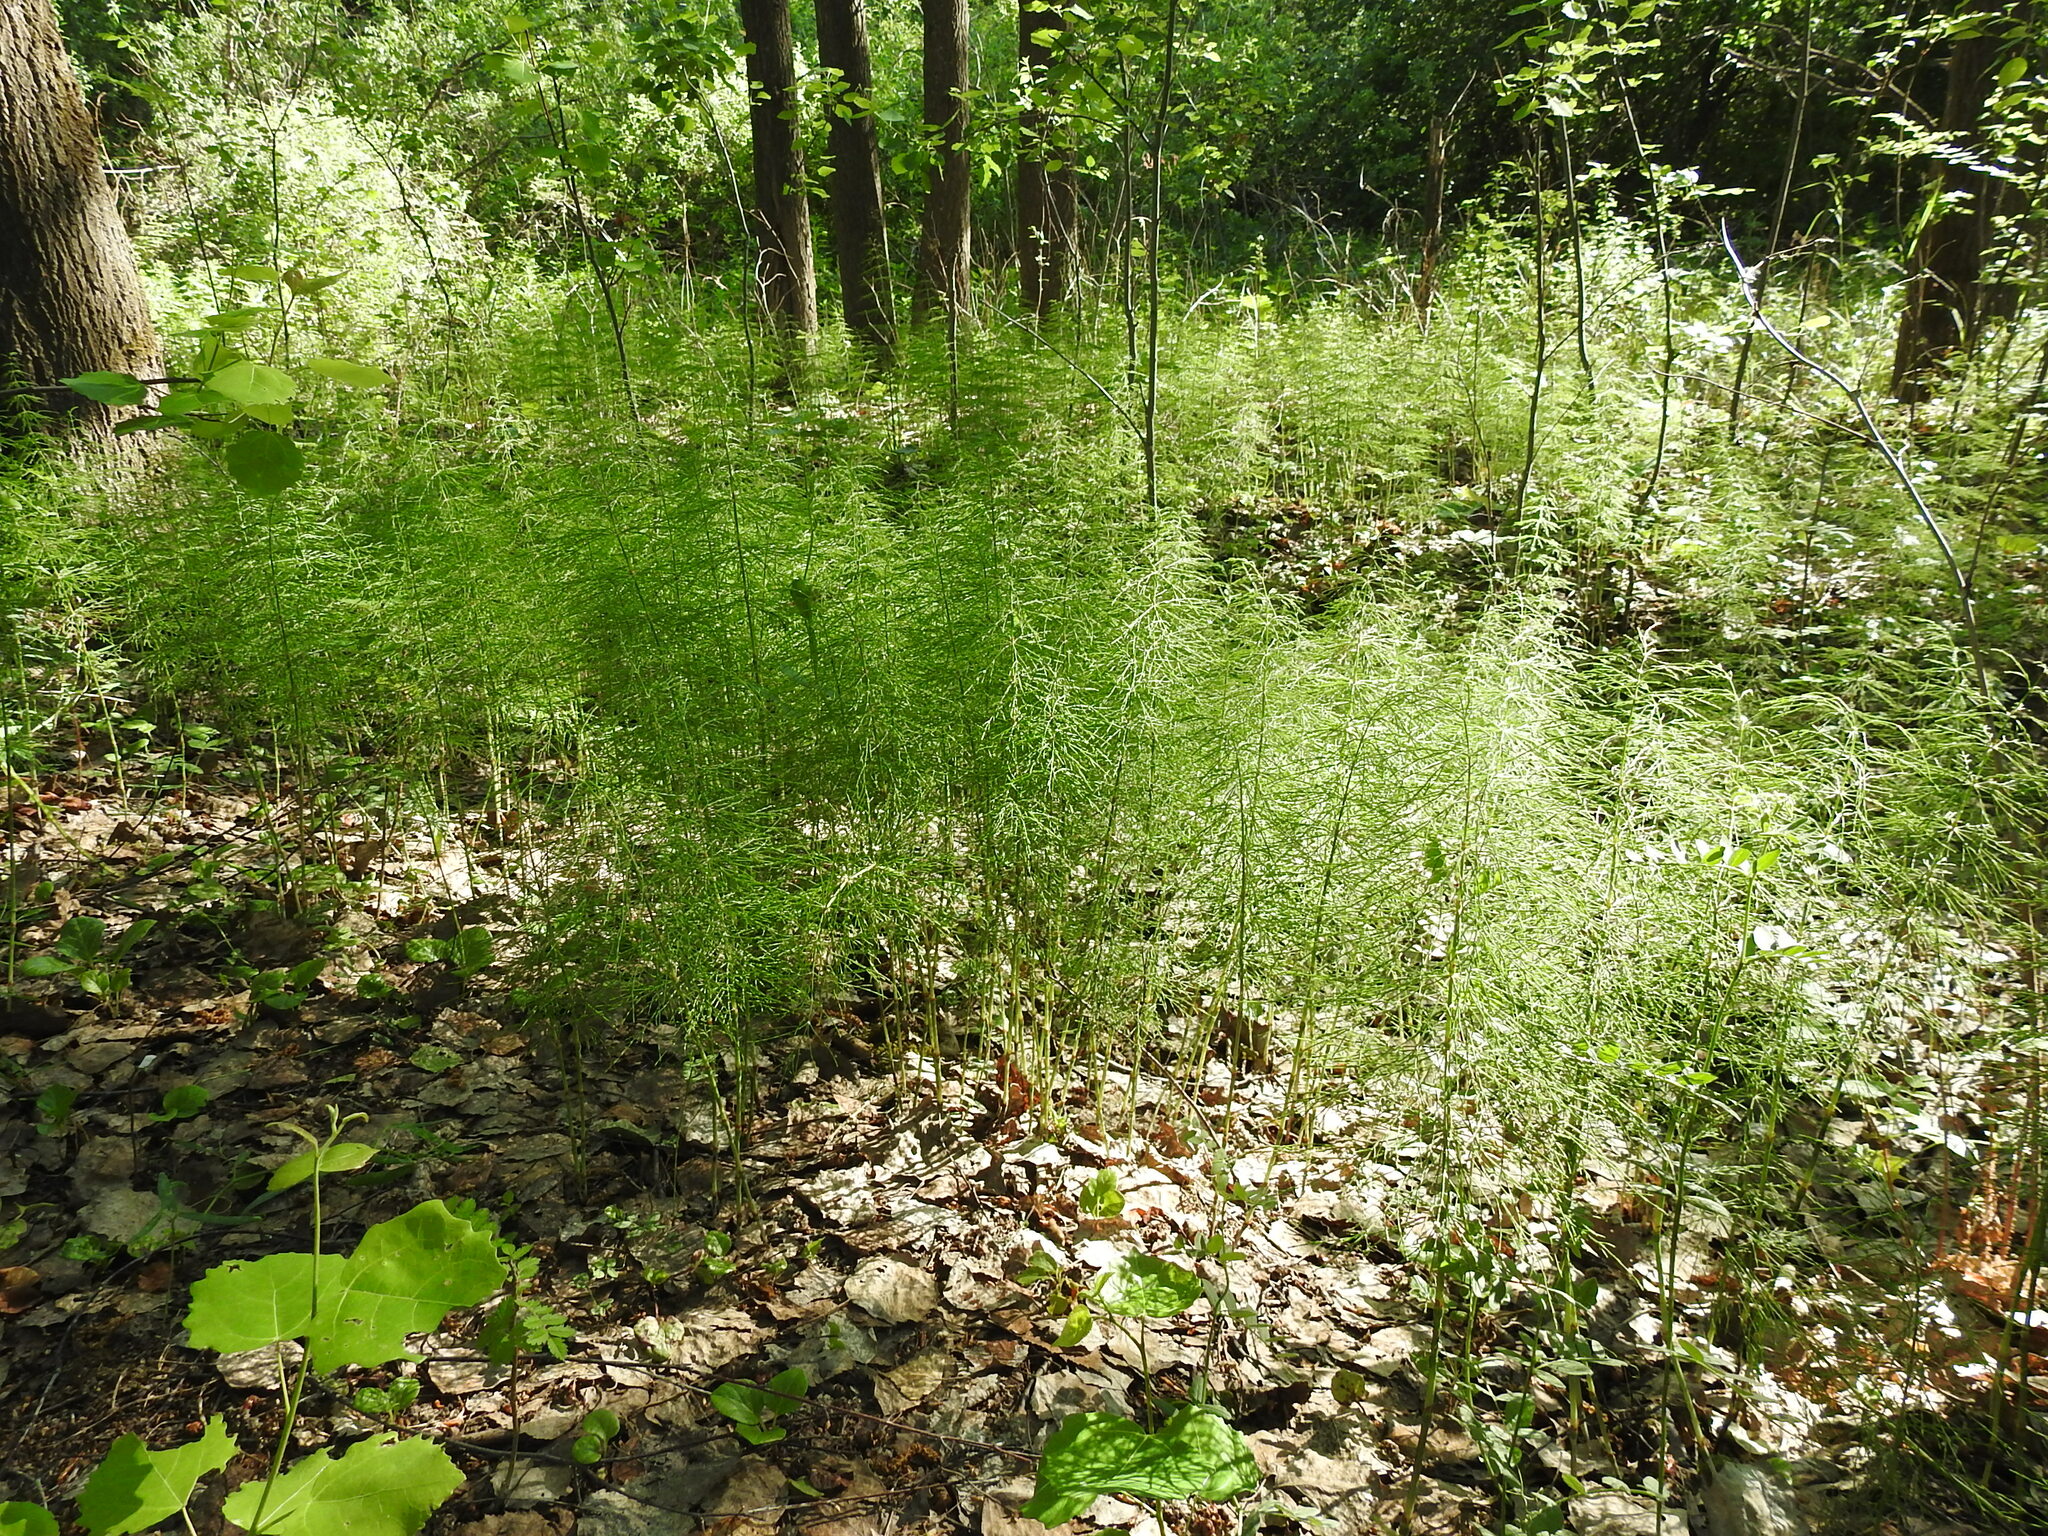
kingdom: Plantae
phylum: Tracheophyta
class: Polypodiopsida
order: Equisetales
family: Equisetaceae
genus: Equisetum
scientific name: Equisetum sylvaticum
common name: Wood horsetail
